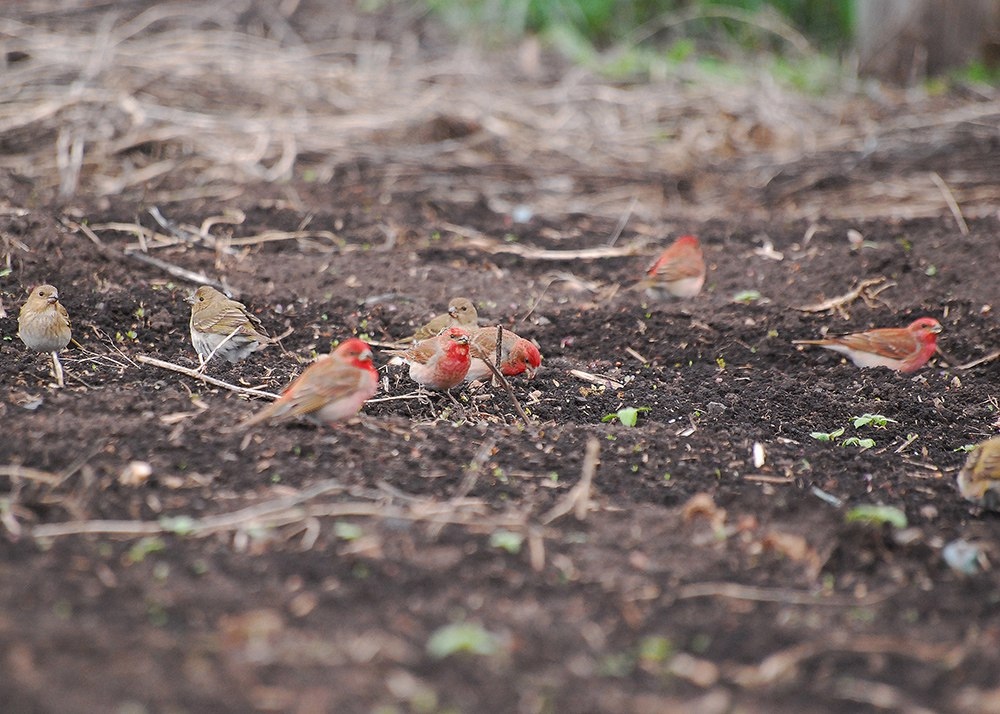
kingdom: Animalia
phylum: Chordata
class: Aves
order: Passeriformes
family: Fringillidae
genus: Carpodacus
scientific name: Carpodacus erythrinus
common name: Common rosefinch
